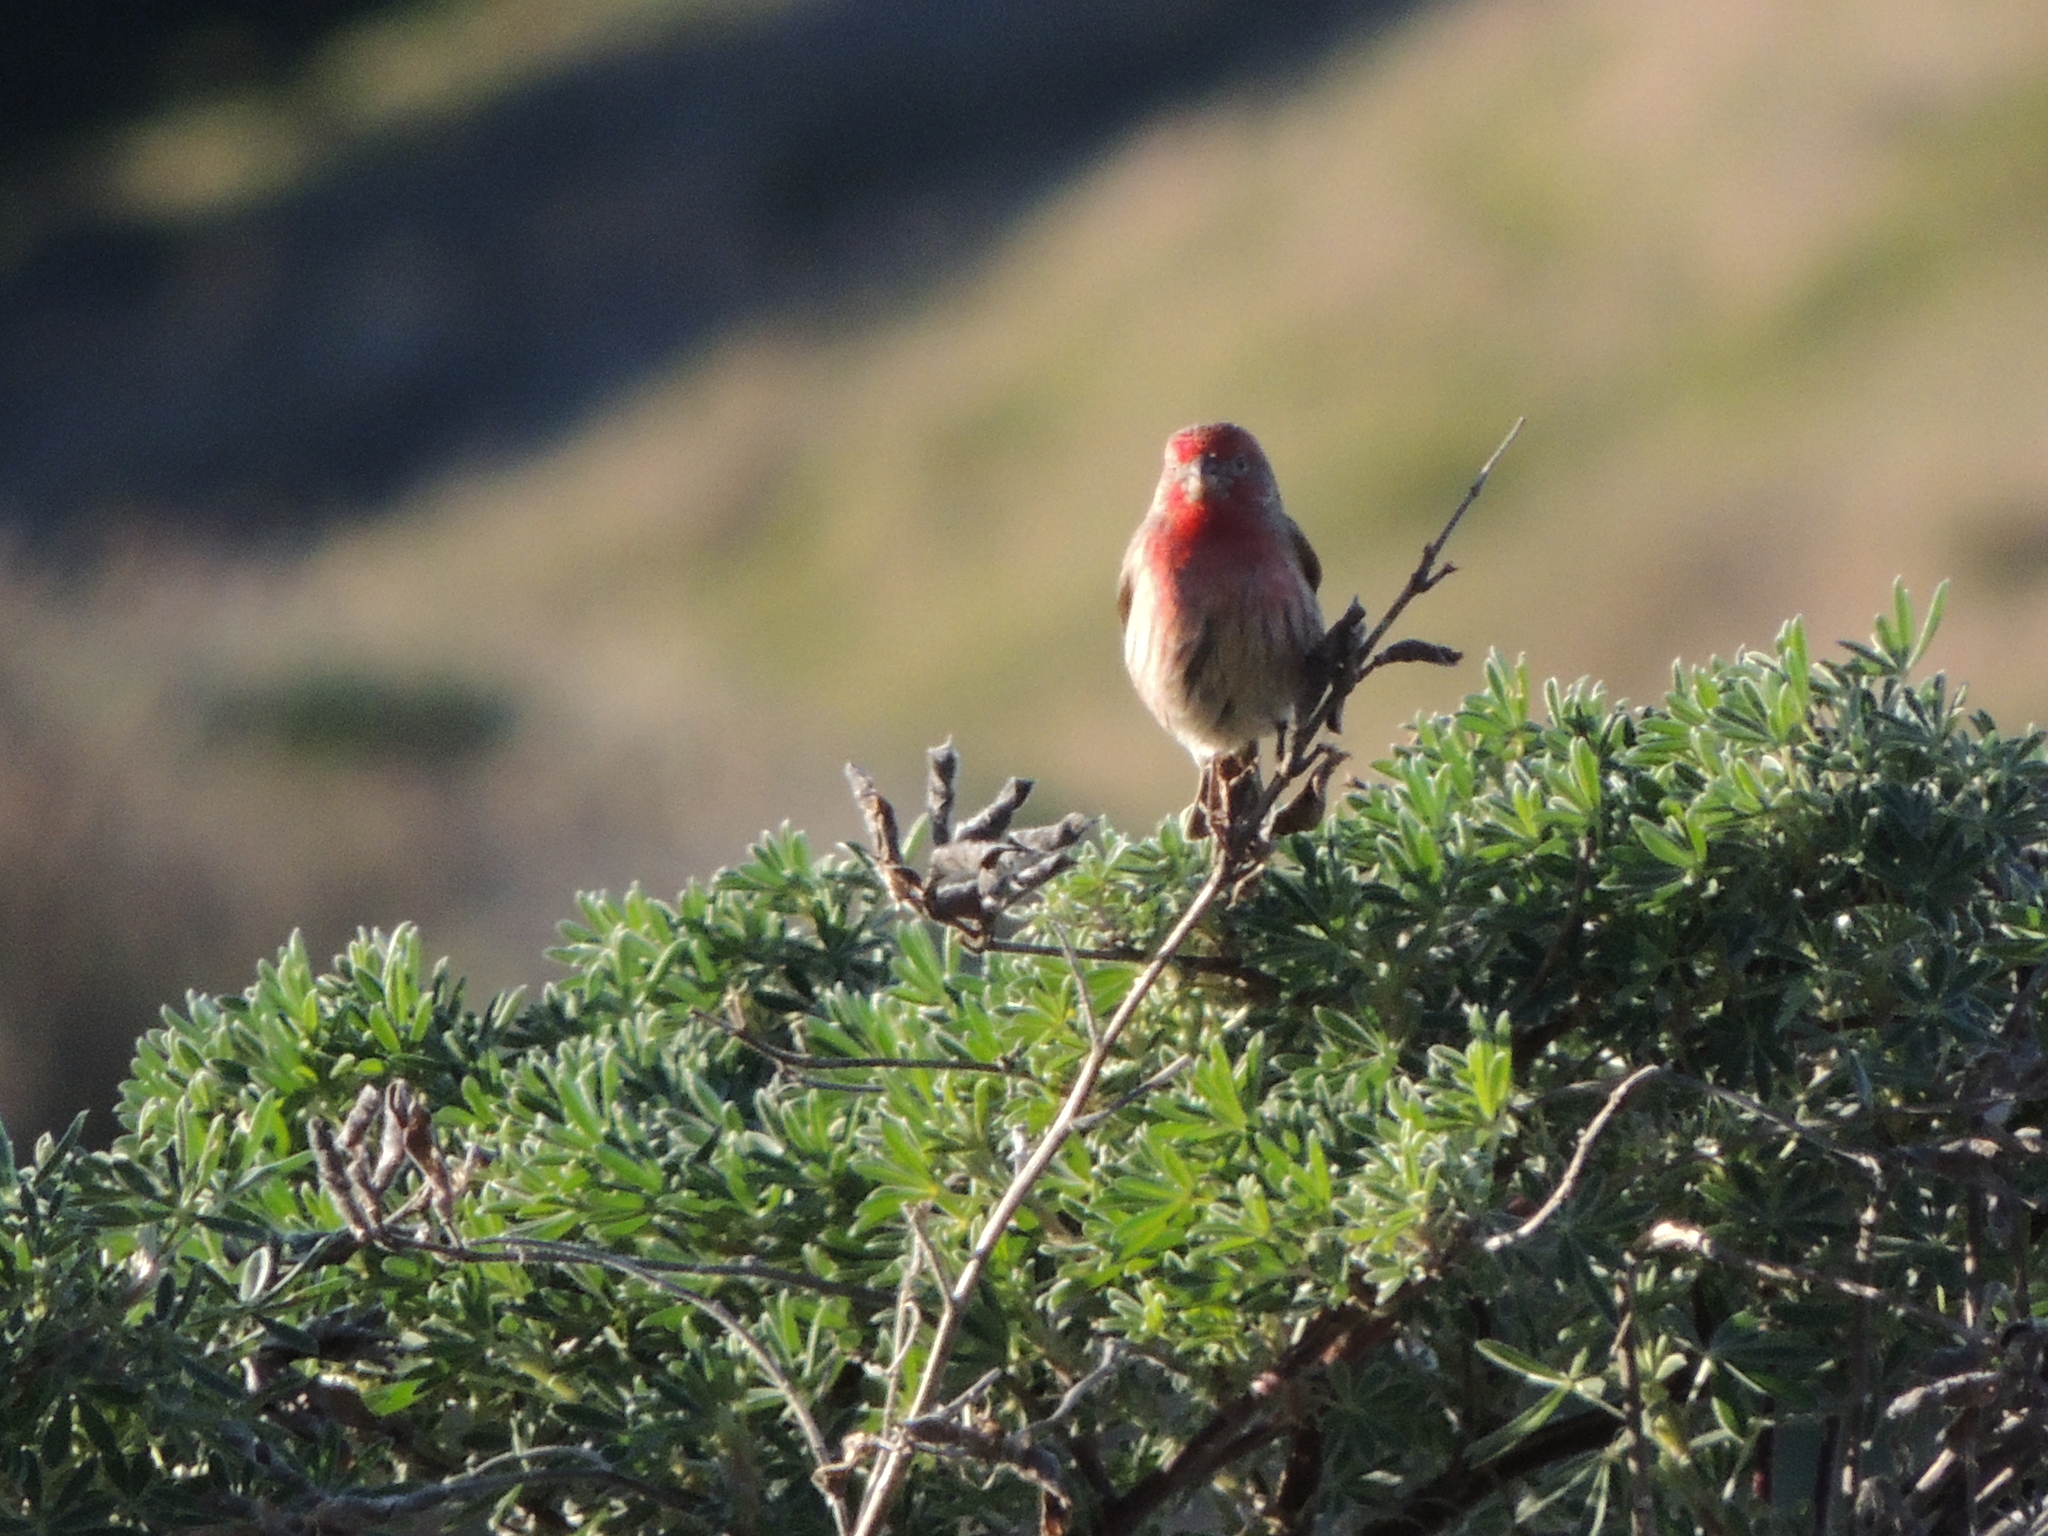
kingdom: Animalia
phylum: Chordata
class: Aves
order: Passeriformes
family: Fringillidae
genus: Haemorhous
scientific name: Haemorhous mexicanus
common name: House finch
